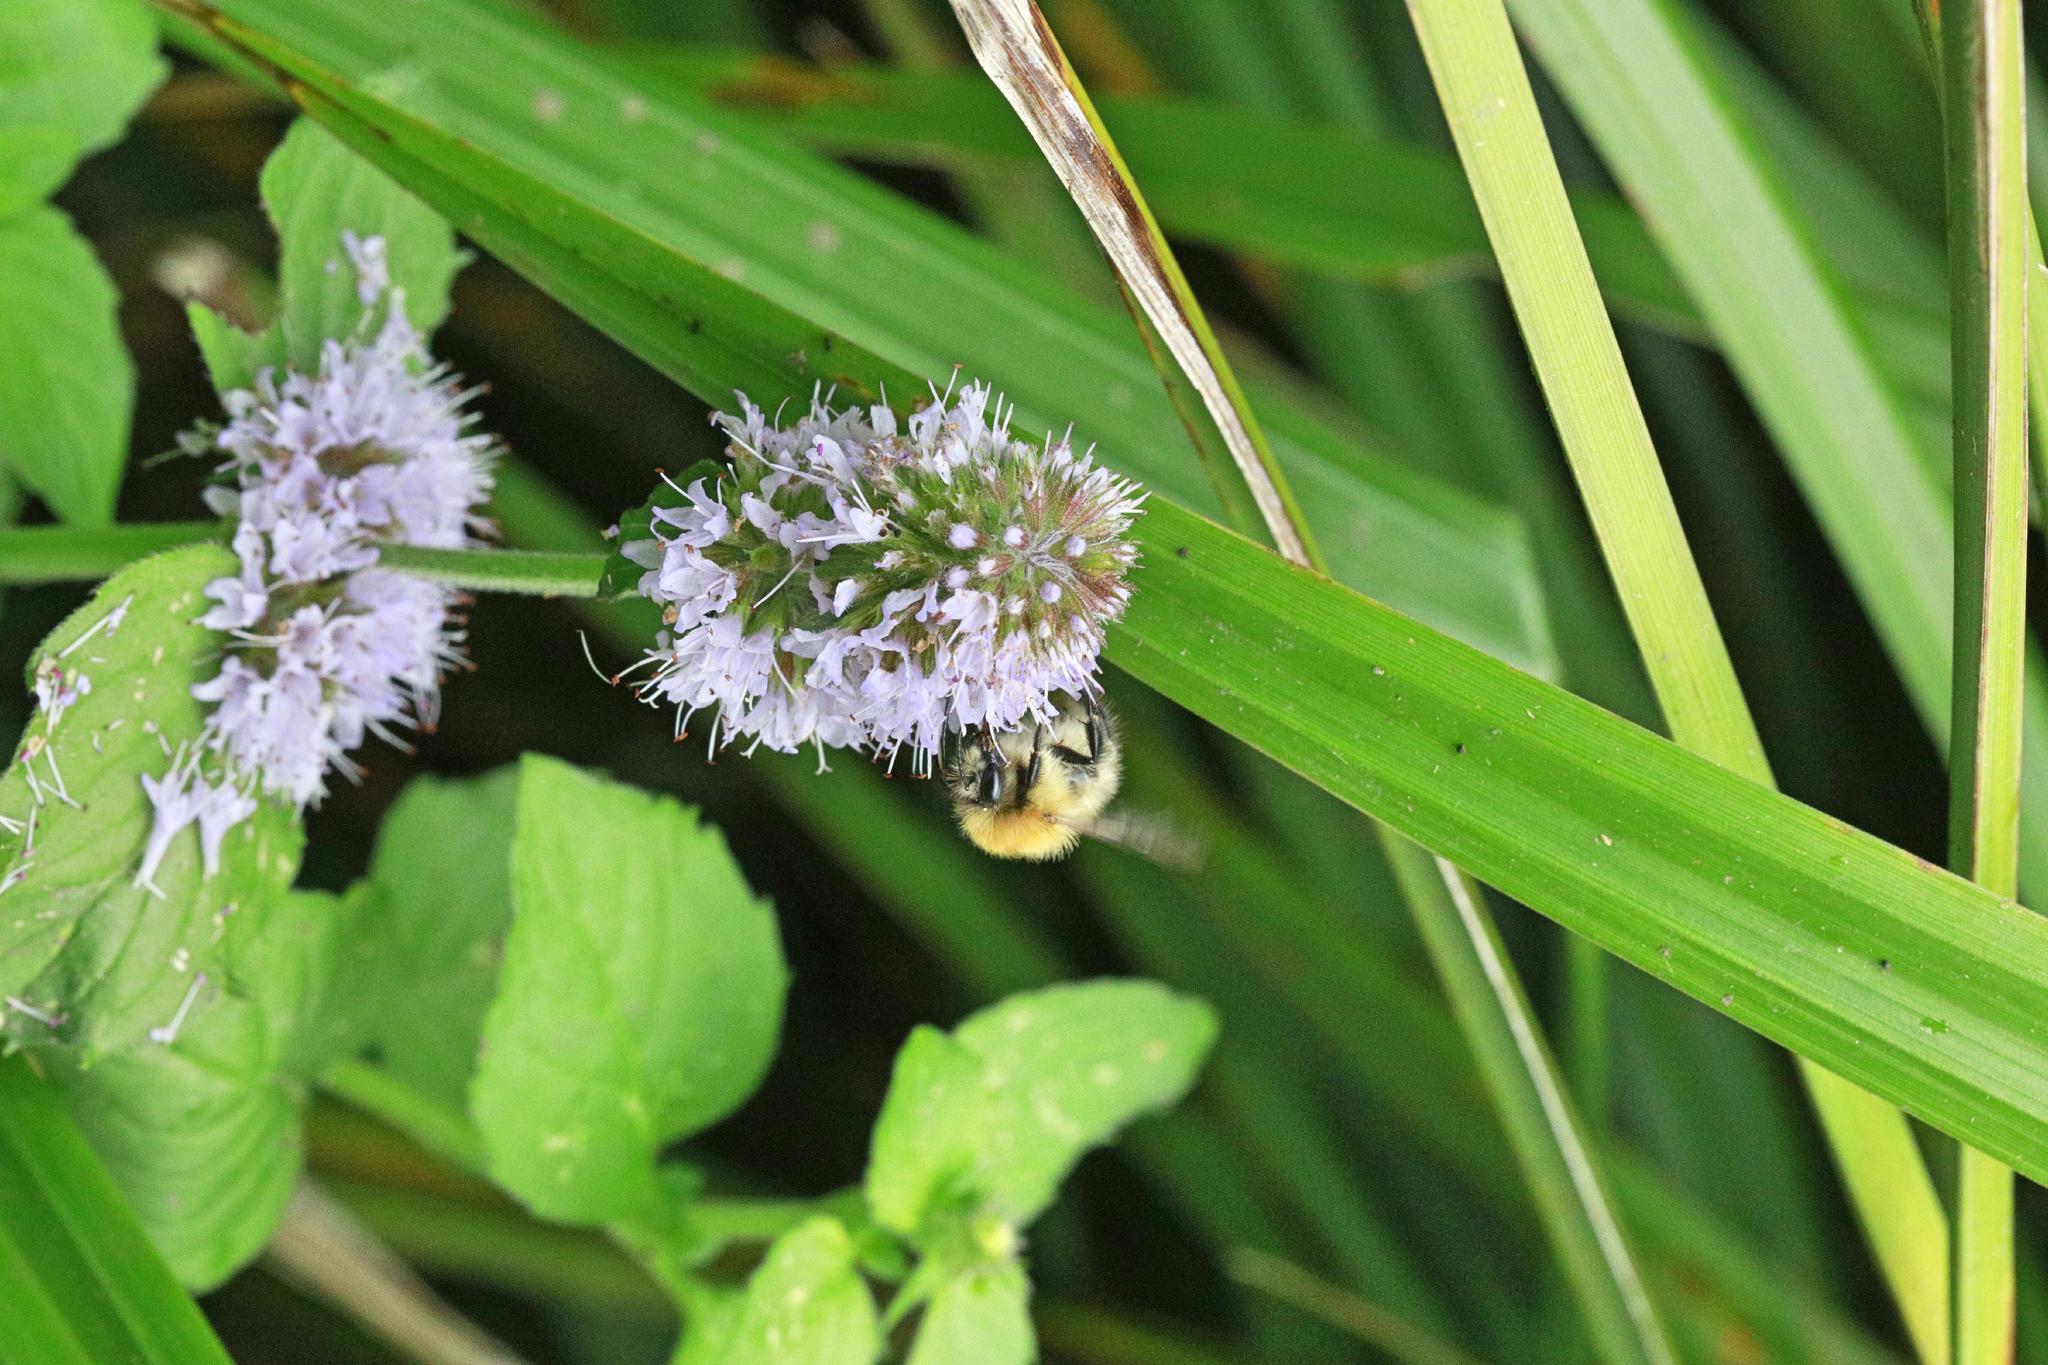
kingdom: Plantae
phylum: Tracheophyta
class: Magnoliopsida
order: Lamiales
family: Lamiaceae
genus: Mentha
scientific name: Mentha aquatica
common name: Water mint
